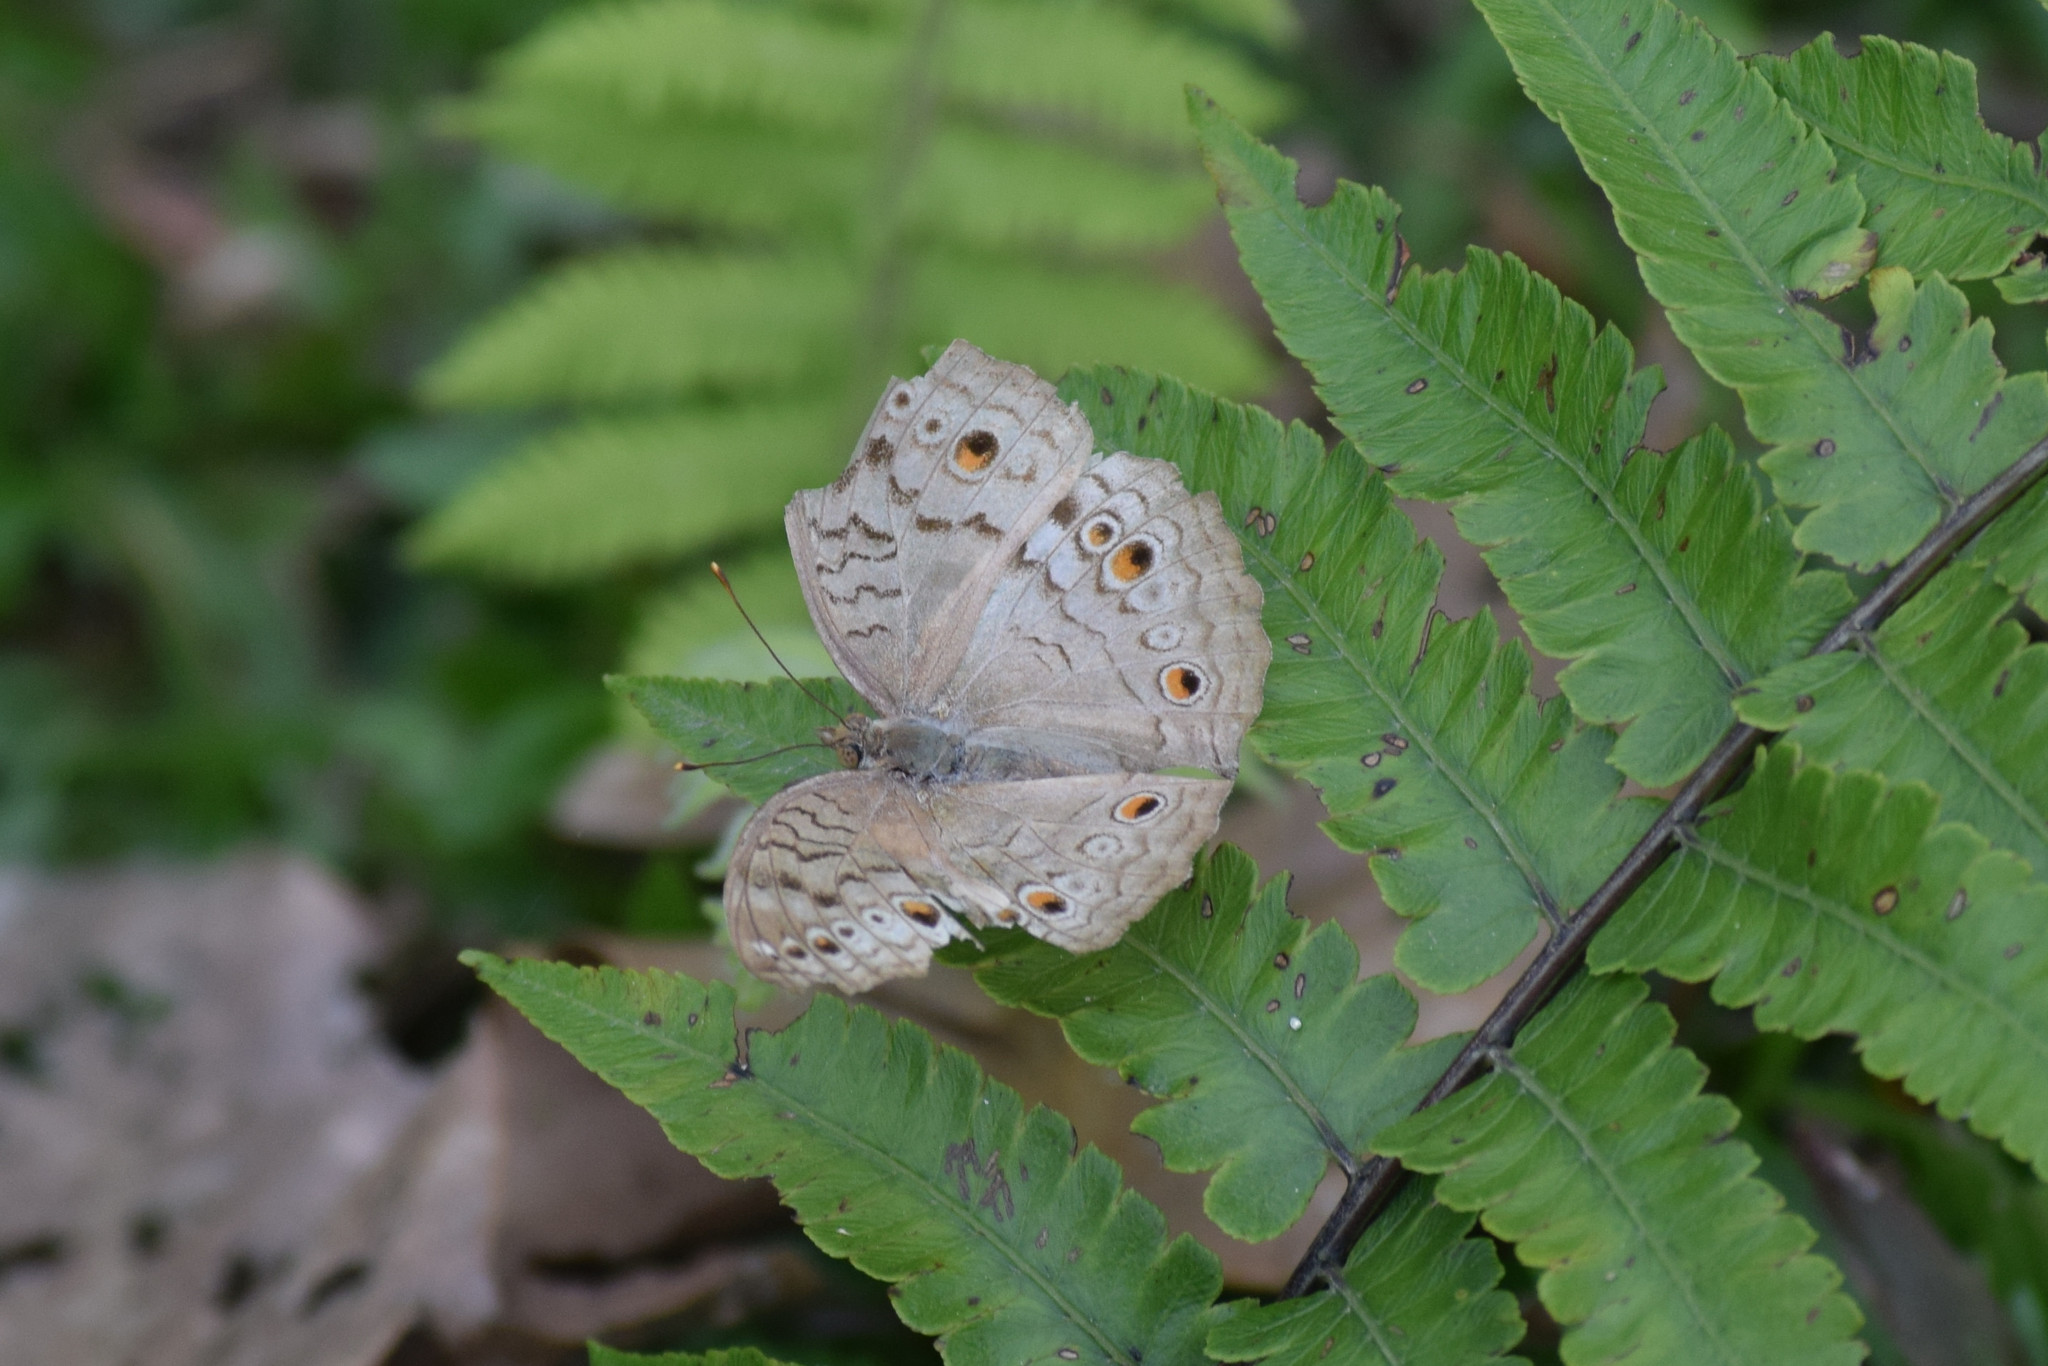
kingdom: Animalia
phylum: Arthropoda
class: Insecta
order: Lepidoptera
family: Nymphalidae
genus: Junonia
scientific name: Junonia atlites
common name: Grey pansy
